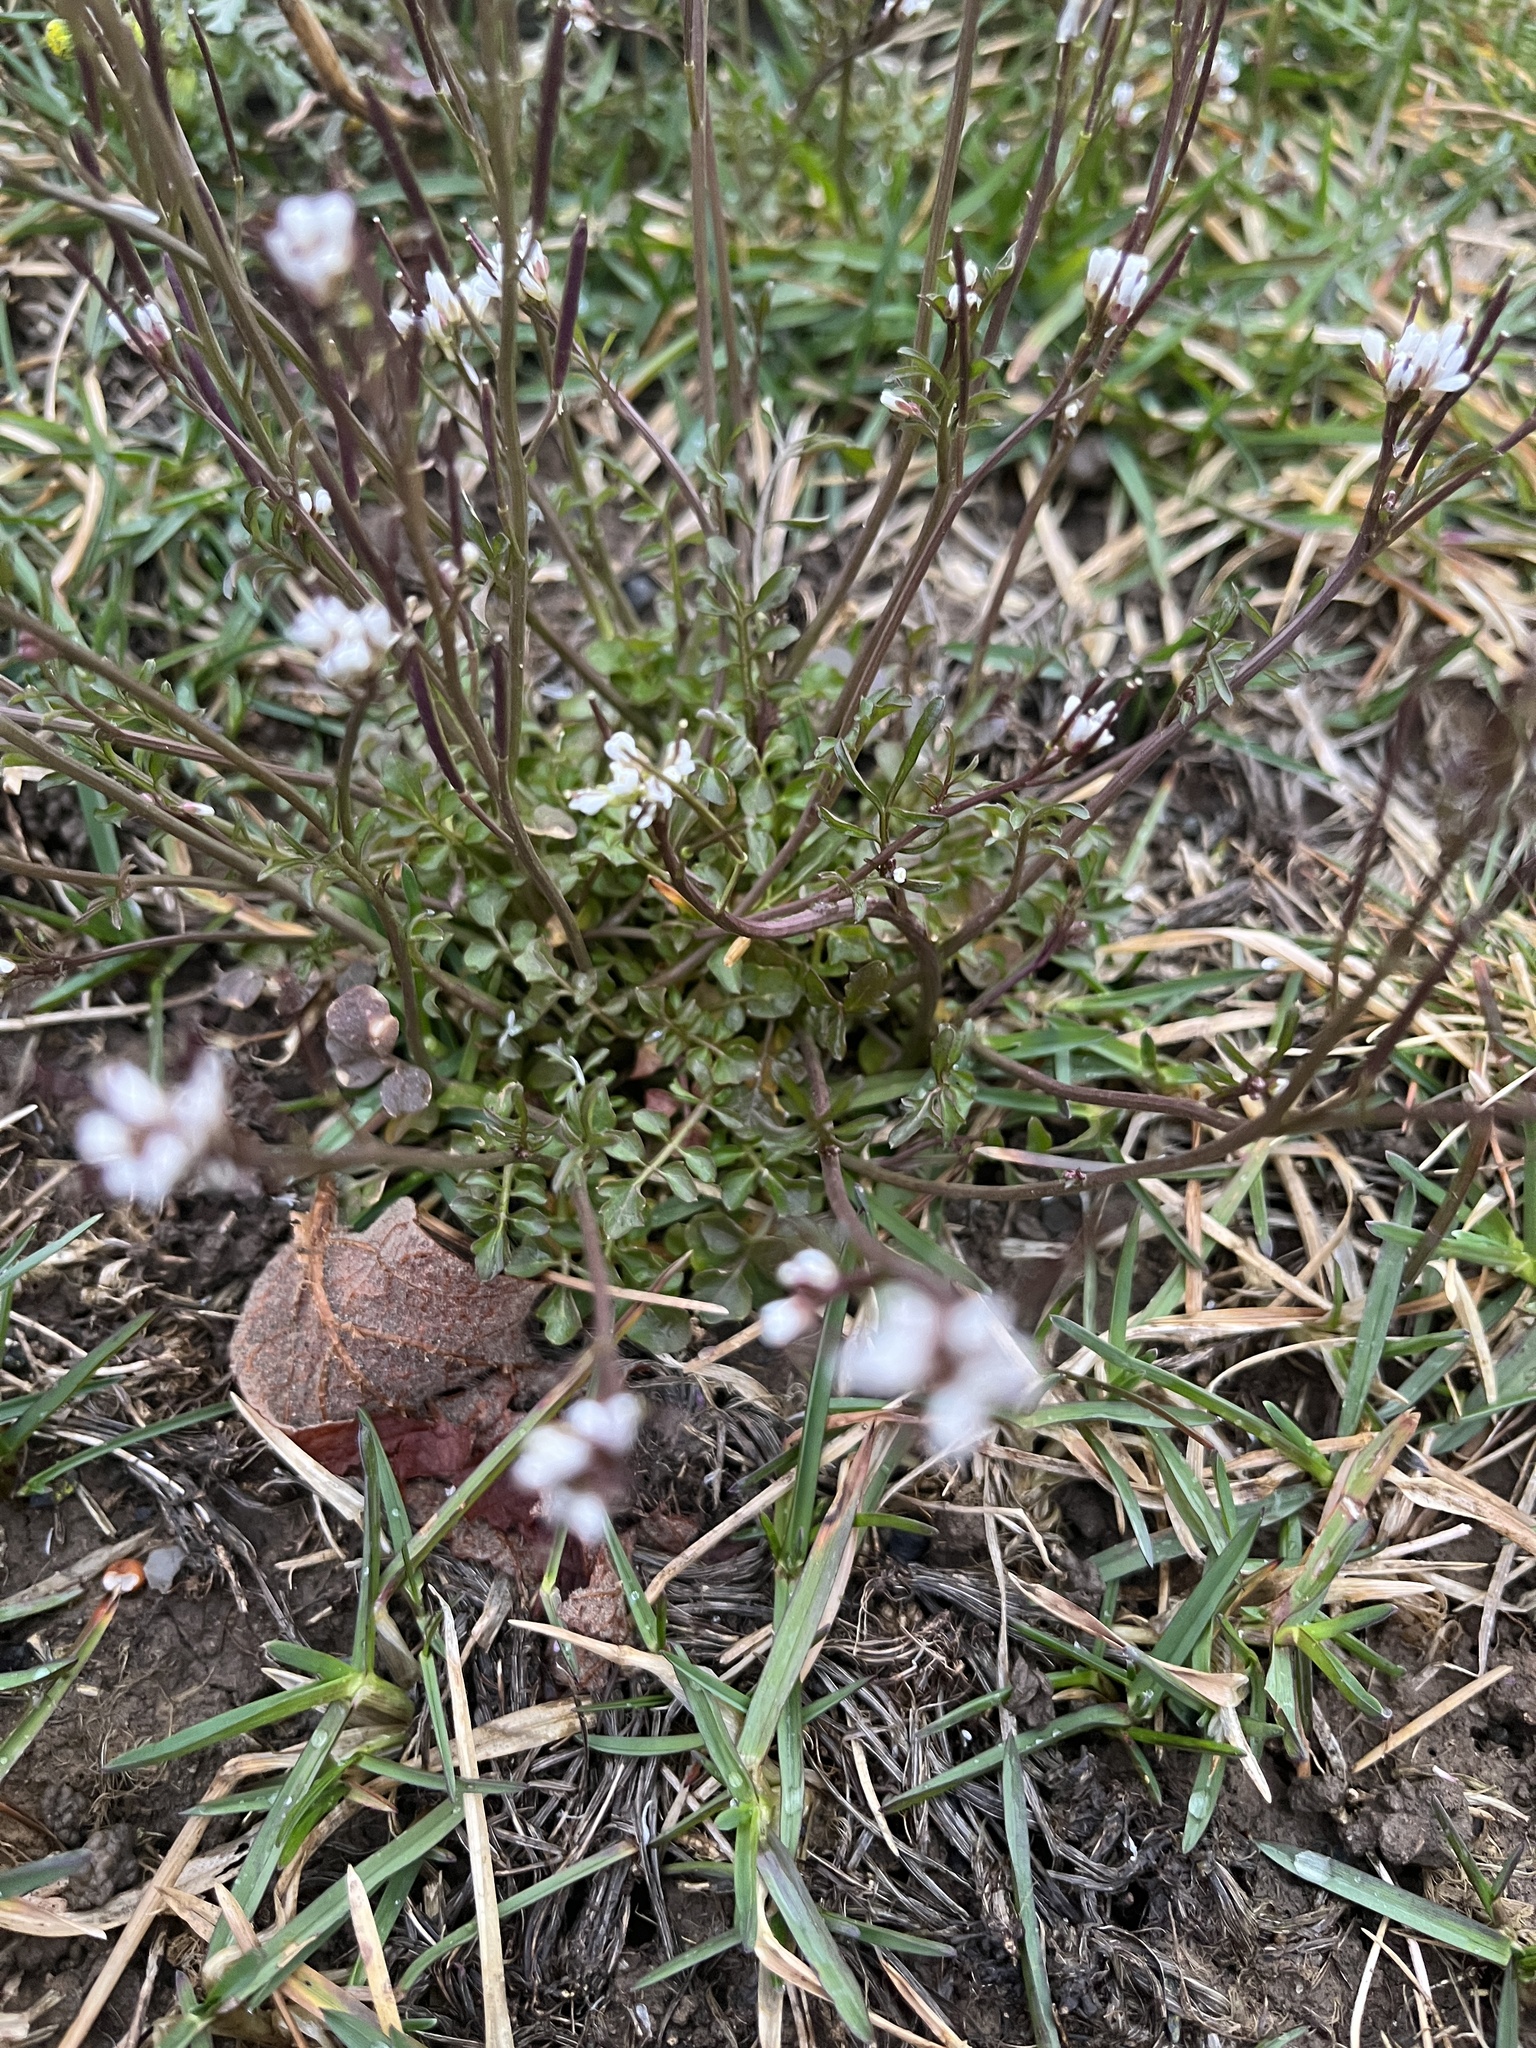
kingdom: Plantae
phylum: Tracheophyta
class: Magnoliopsida
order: Brassicales
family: Brassicaceae
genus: Cardamine
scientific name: Cardamine hirsuta
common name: Hairy bittercress
